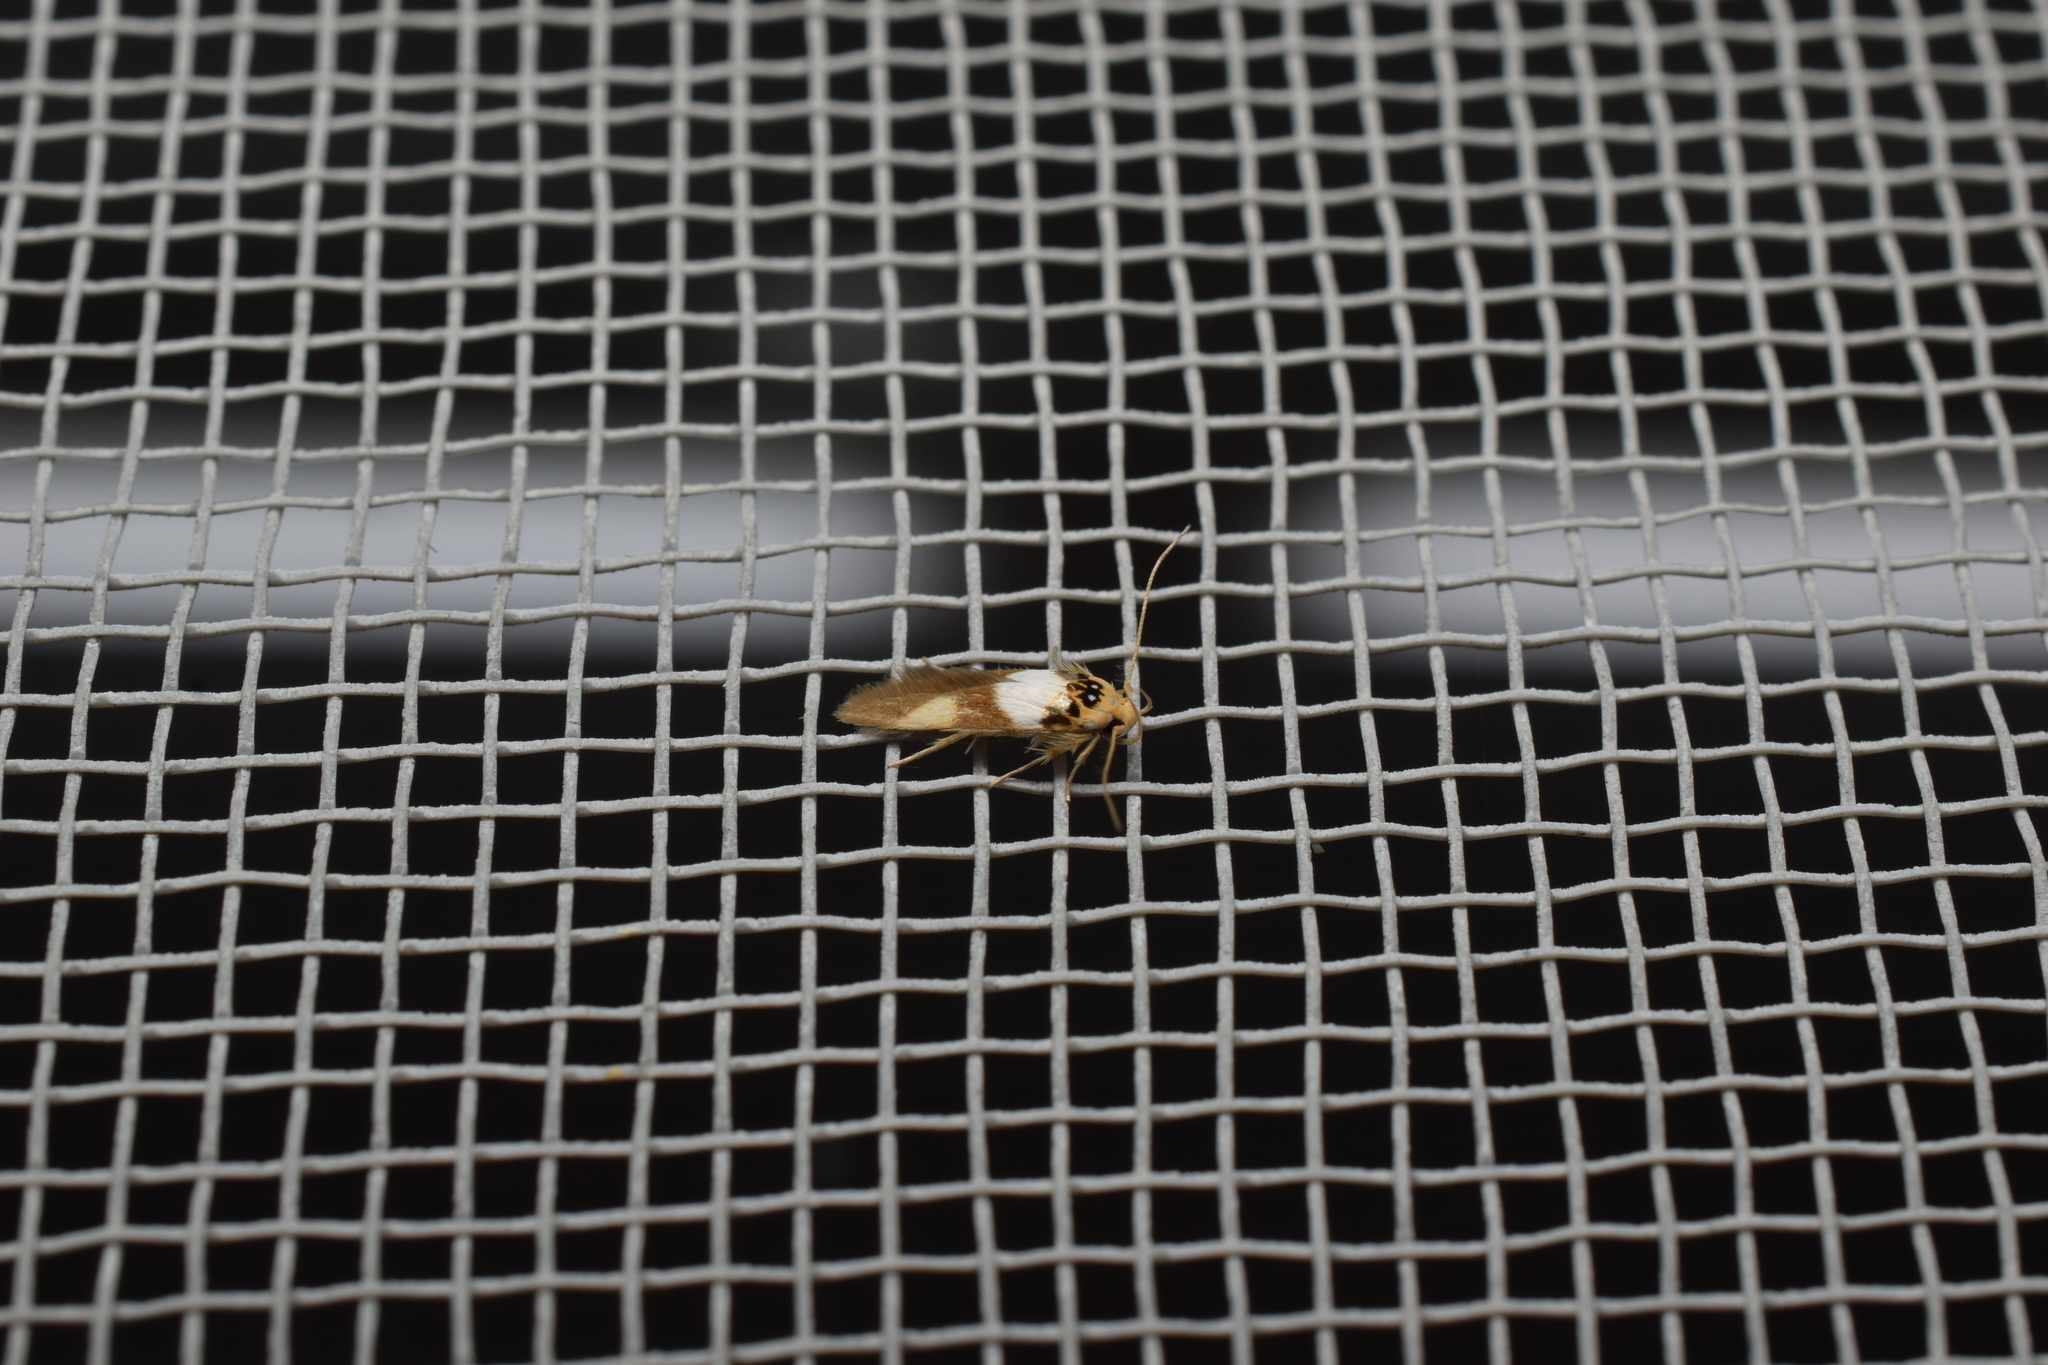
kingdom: Animalia
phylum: Arthropoda
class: Insecta
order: Lepidoptera
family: Stathmopodidae
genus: Stathmopoda
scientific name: Stathmopoda opticaspis
